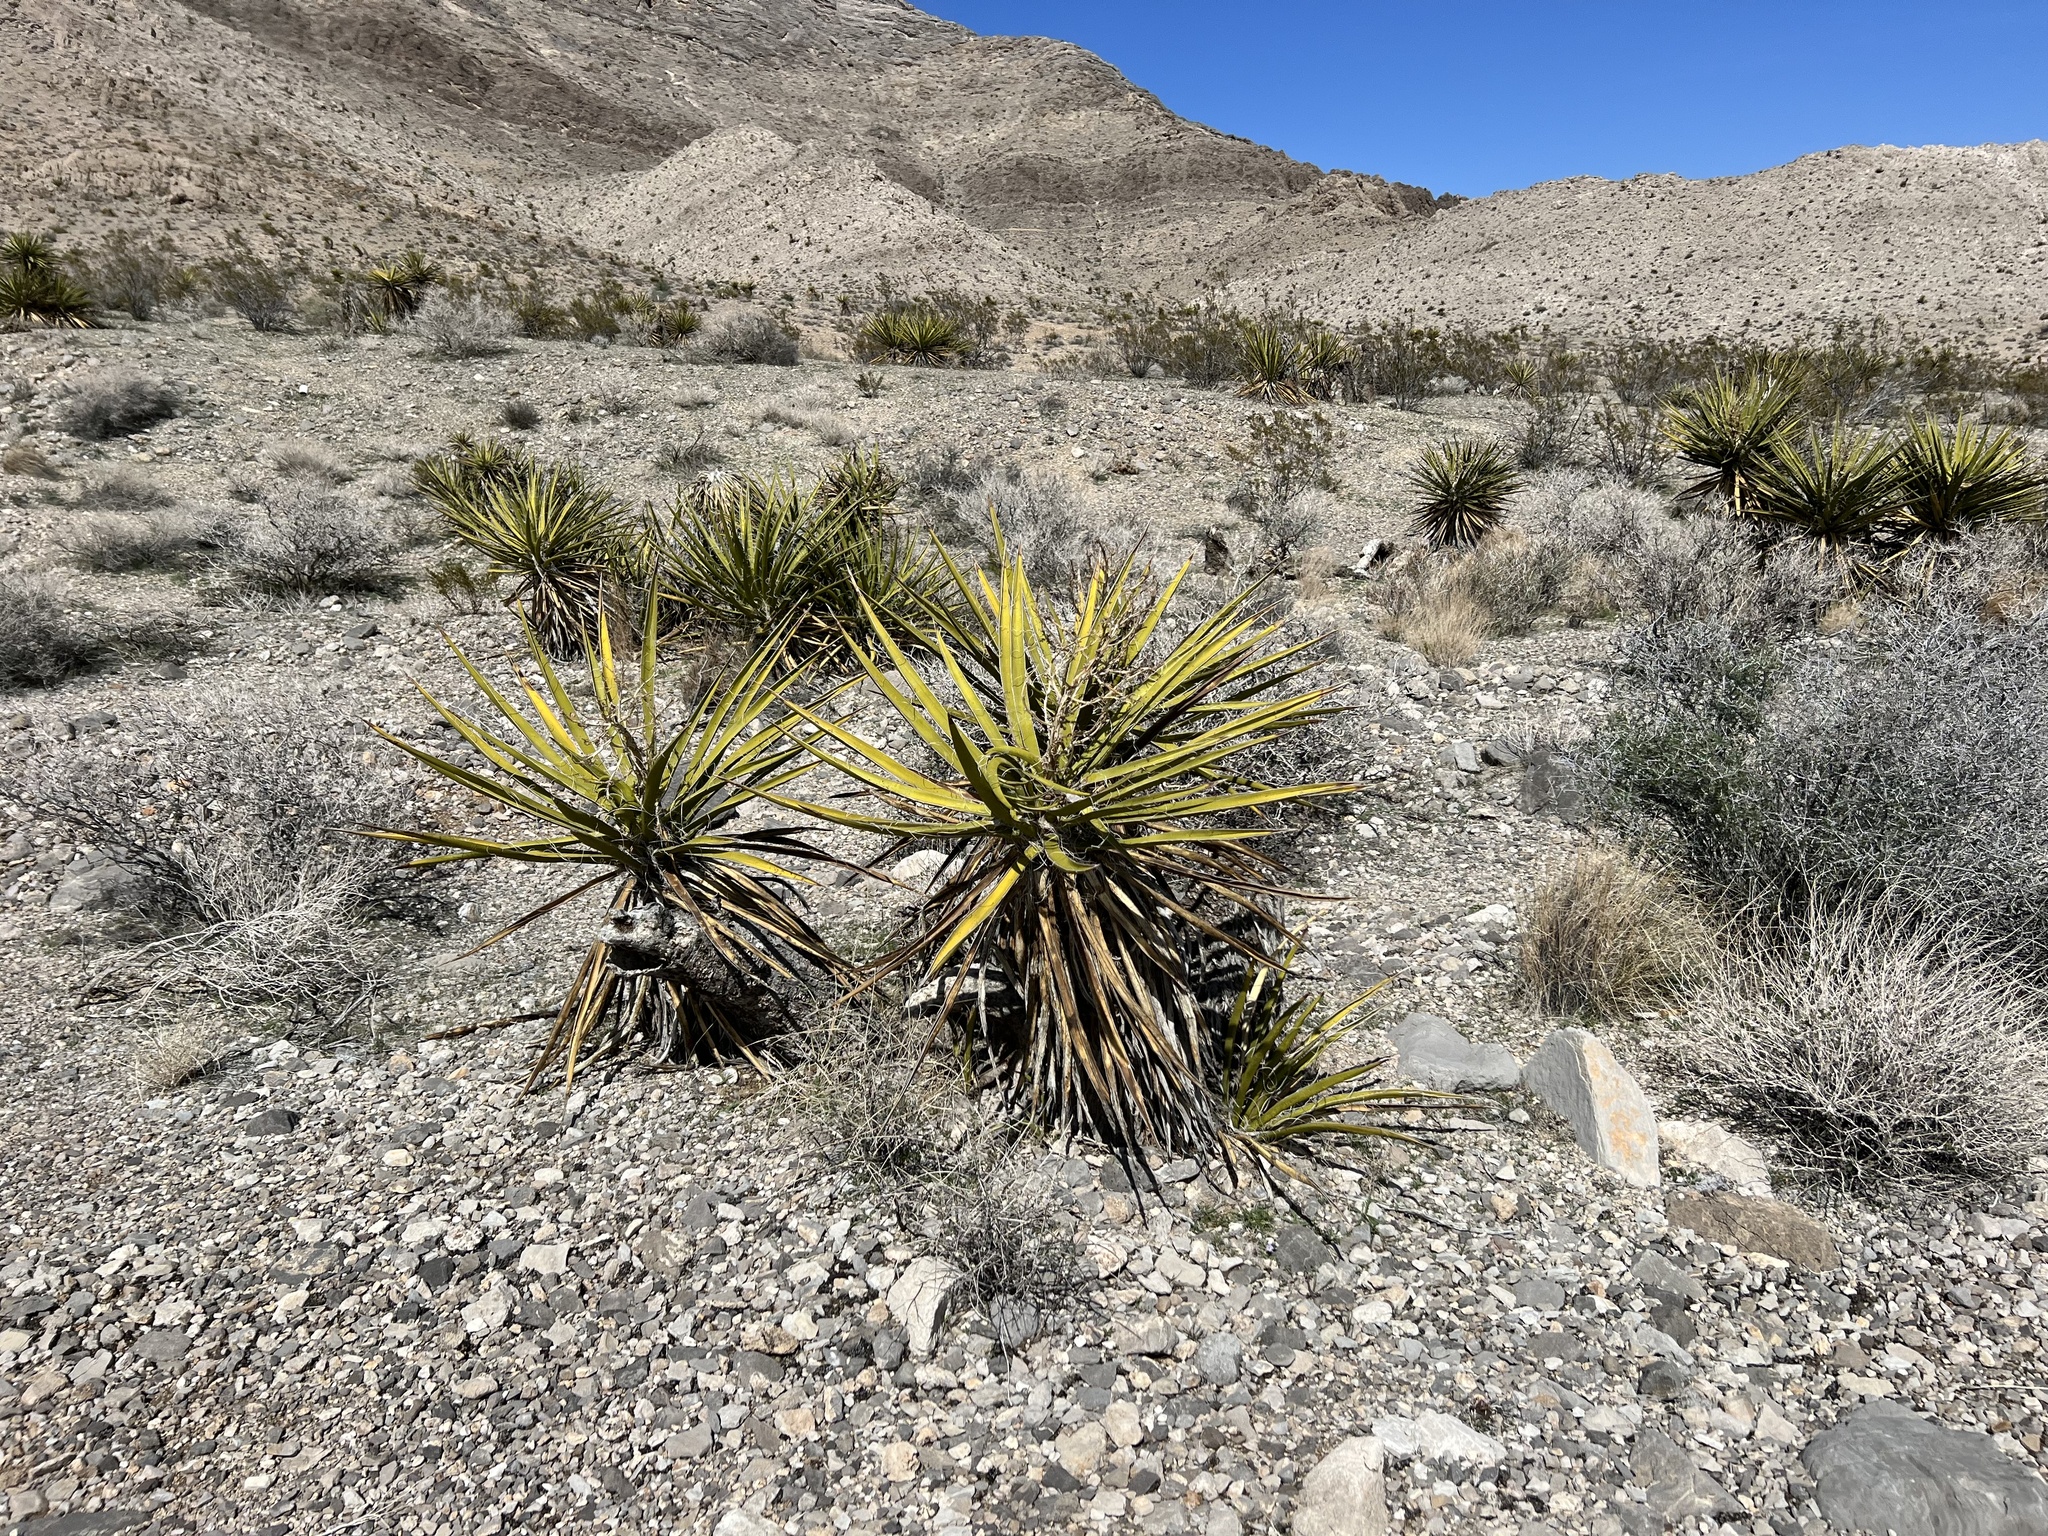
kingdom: Plantae
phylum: Tracheophyta
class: Liliopsida
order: Asparagales
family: Asparagaceae
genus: Yucca
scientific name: Yucca schidigera
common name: Mojave yucca
